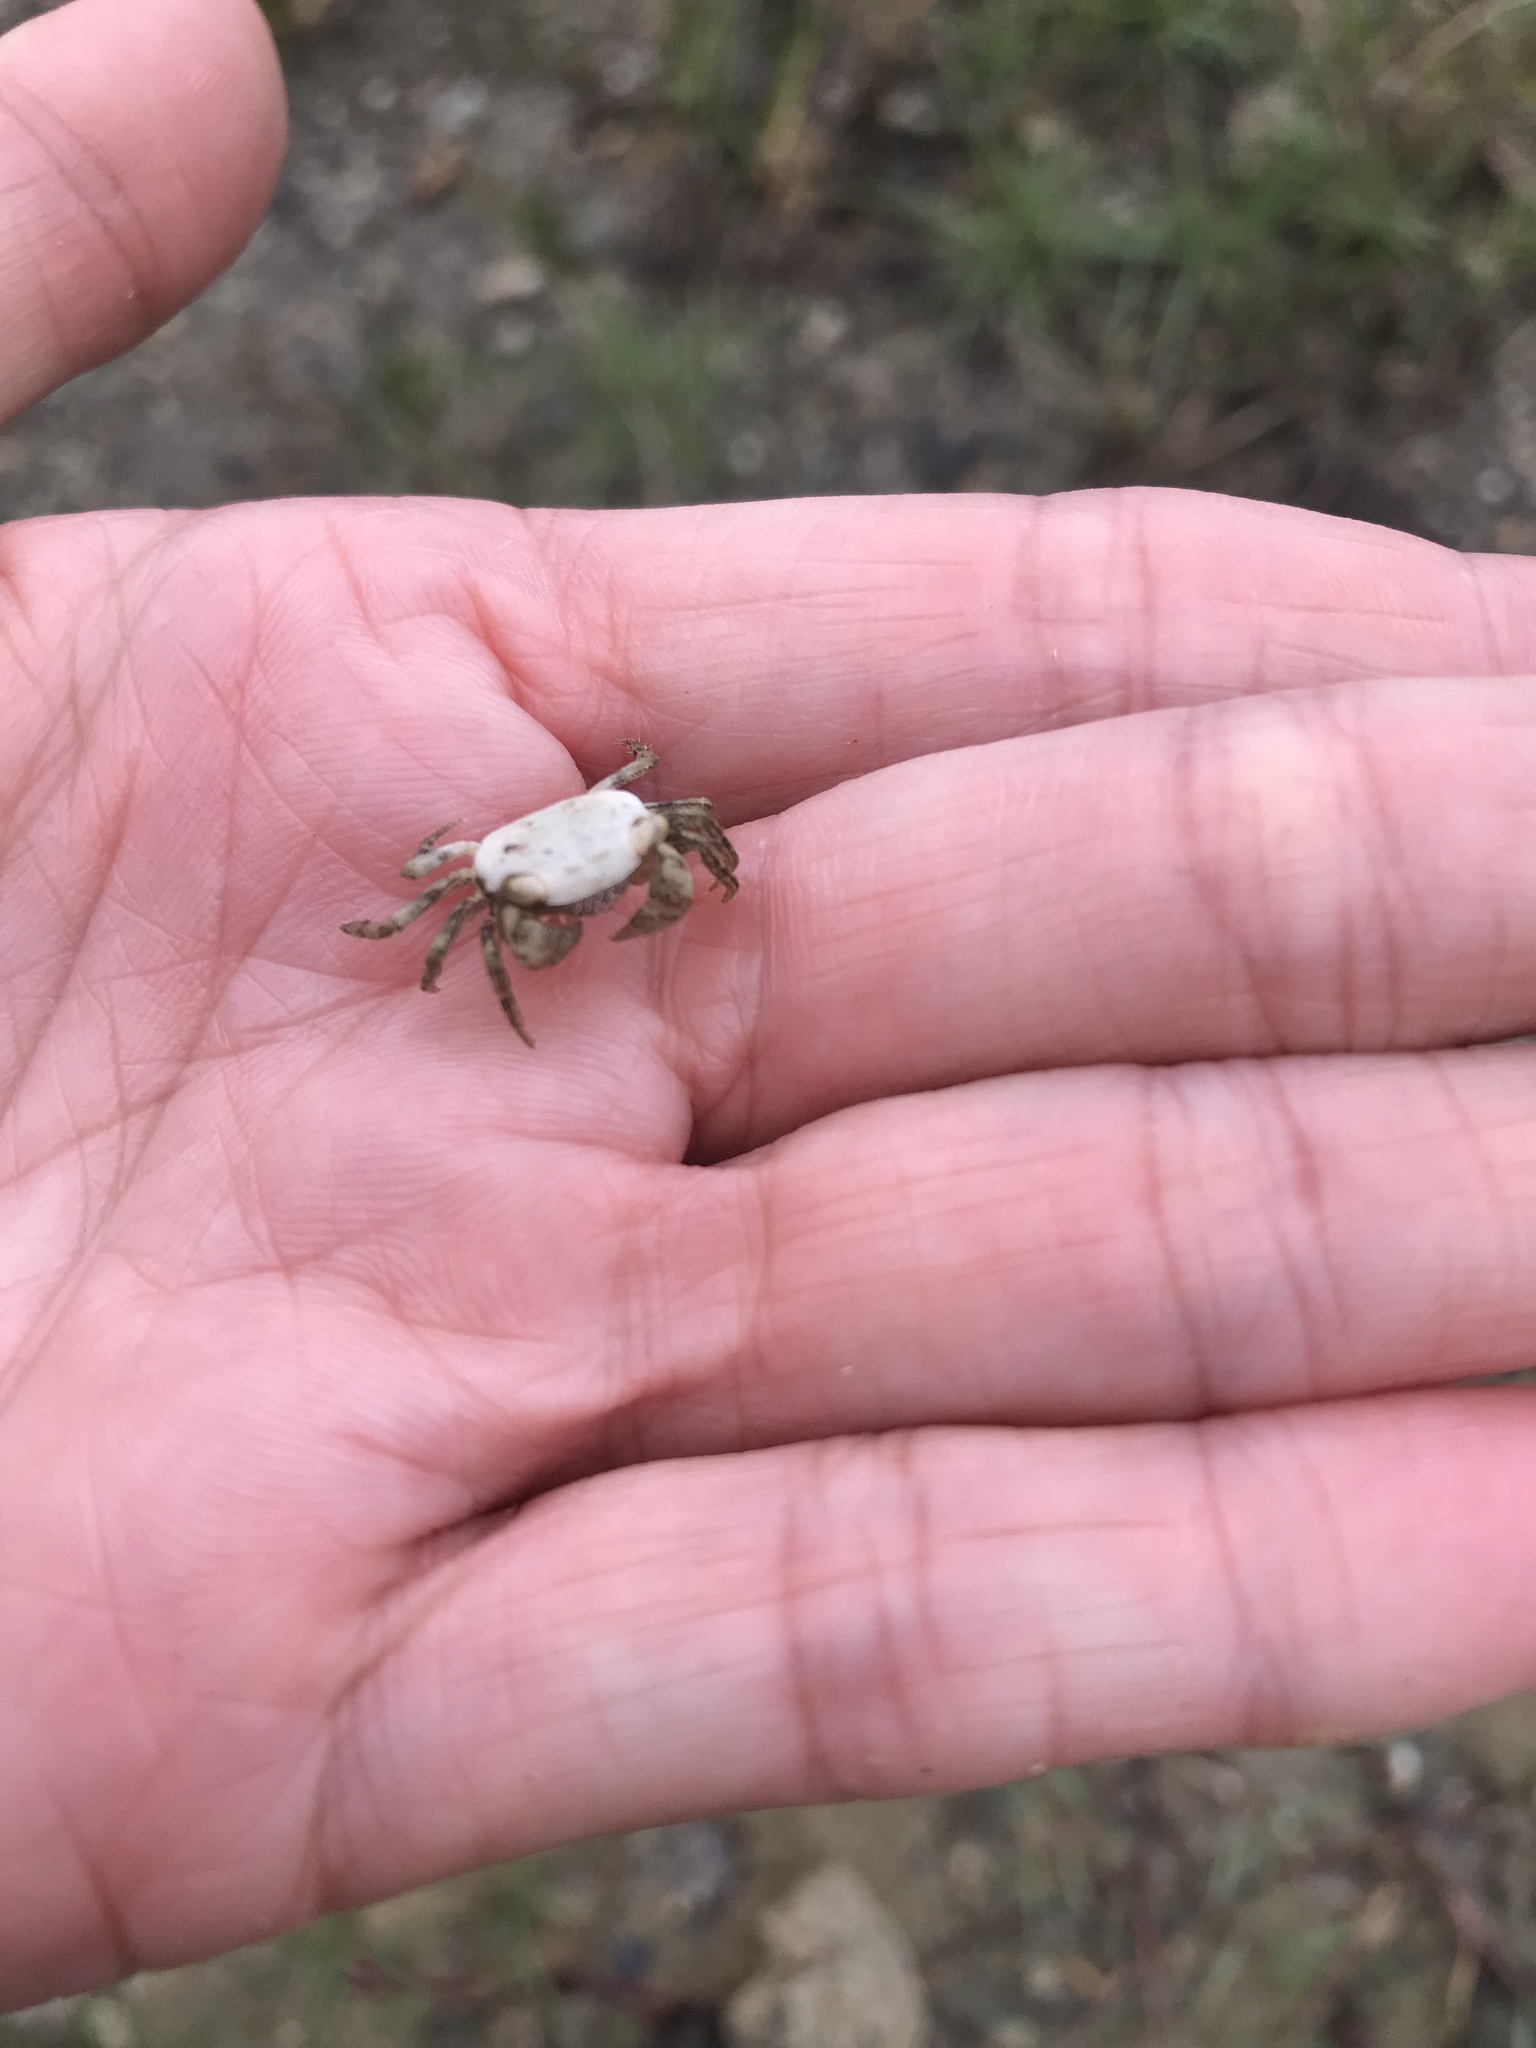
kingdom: Animalia
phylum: Arthropoda
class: Malacostraca
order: Decapoda
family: Sesarmidae
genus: Metasesarma
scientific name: Metasesarma obesum
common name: Marble crab
